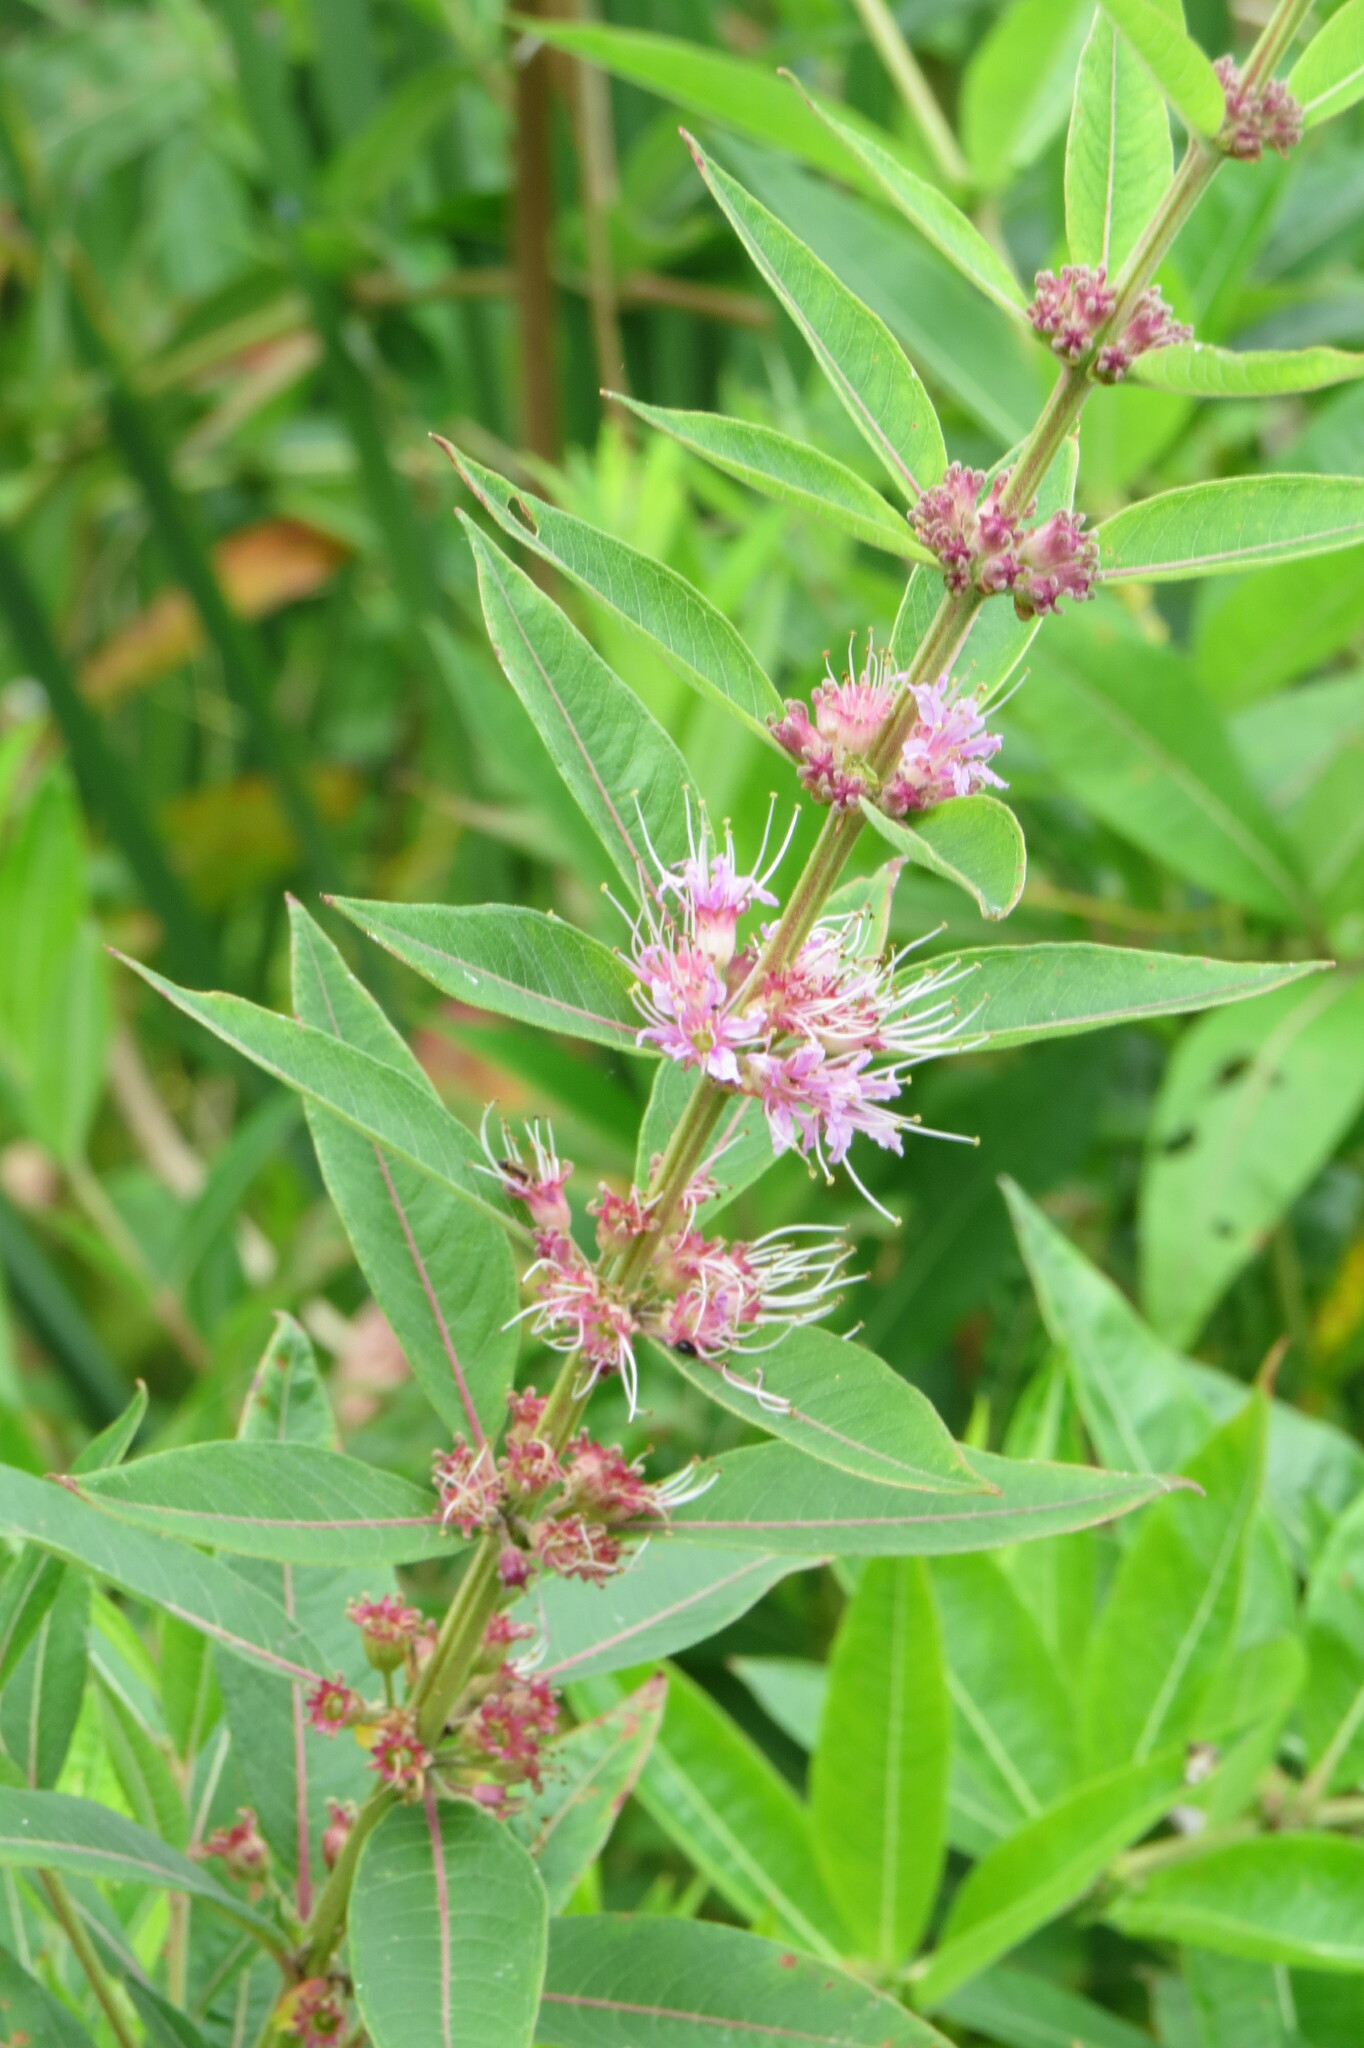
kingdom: Plantae
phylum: Tracheophyta
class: Magnoliopsida
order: Myrtales
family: Lythraceae
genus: Decodon
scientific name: Decodon verticillatus
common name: Hairy swamp loosestrife
